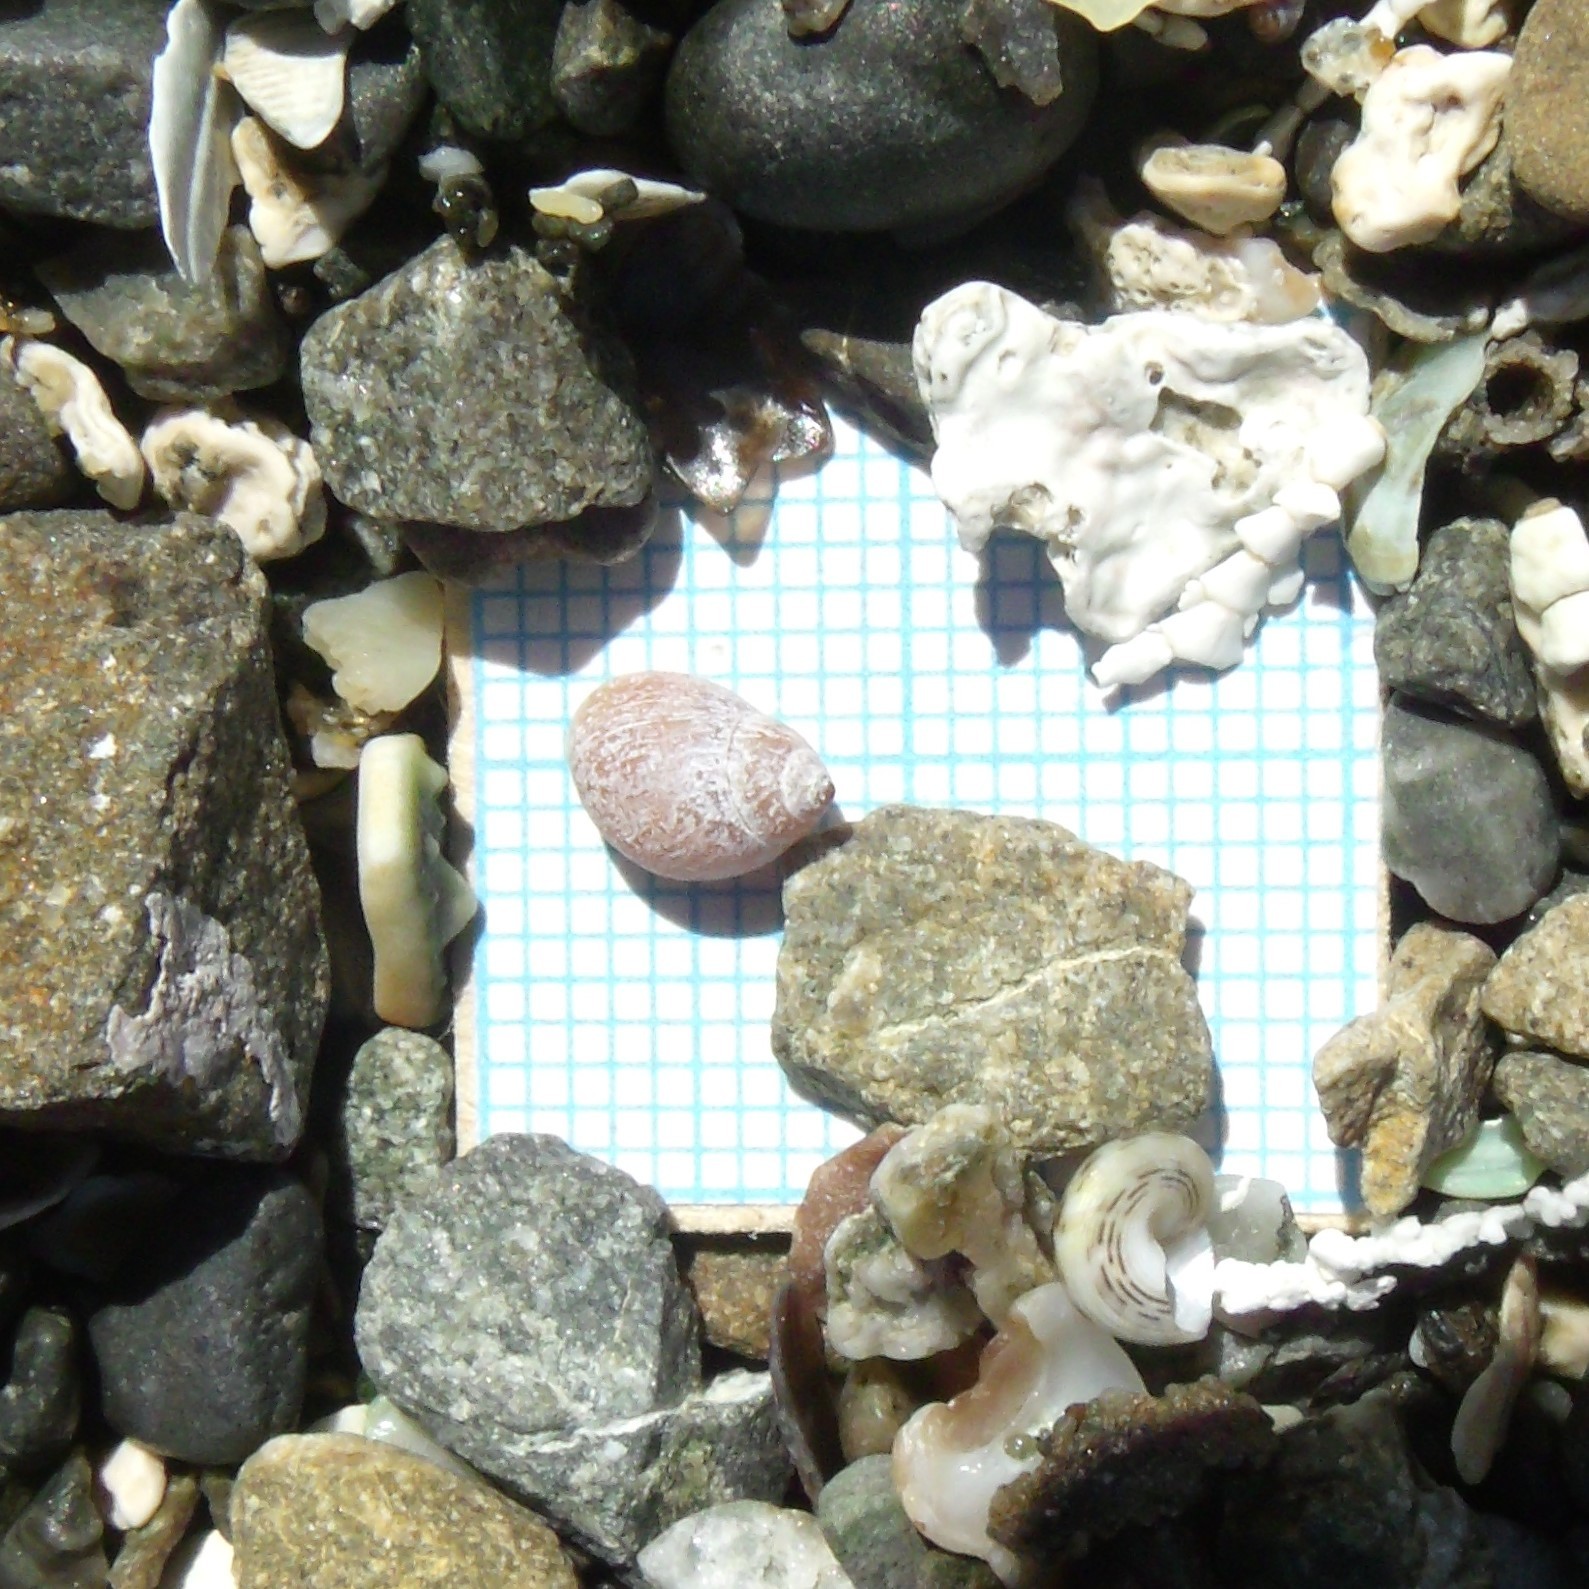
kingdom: Animalia
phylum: Mollusca
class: Gastropoda
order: Ellobiida
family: Ellobiidae
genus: Marinula
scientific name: Marinula filholi
